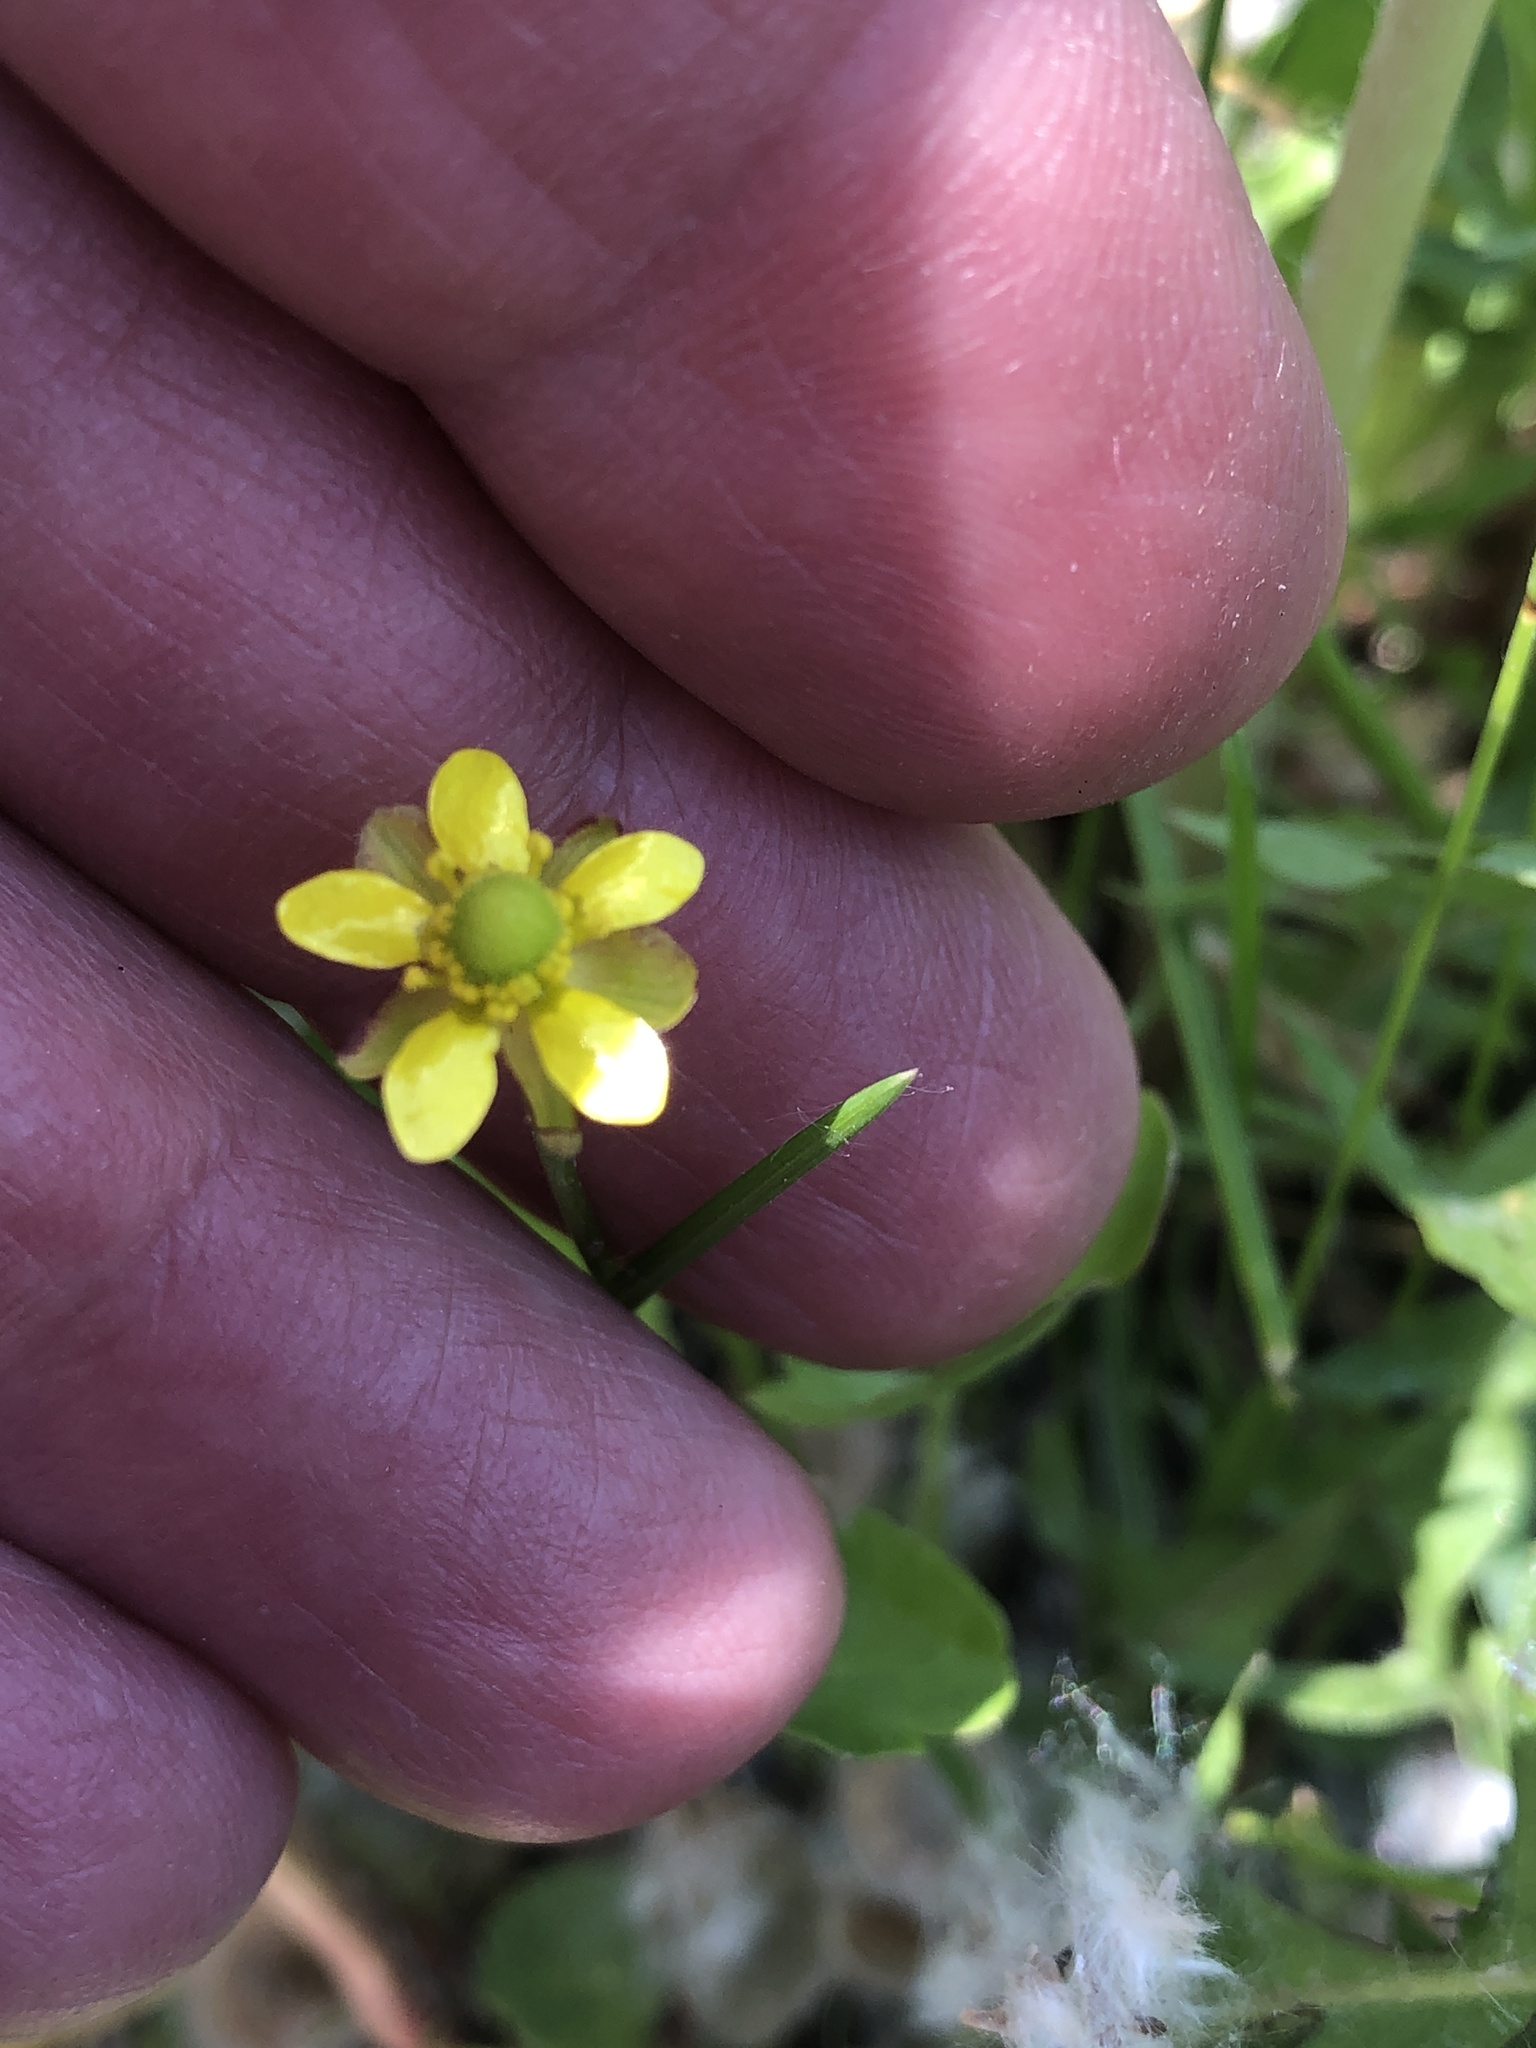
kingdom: Plantae
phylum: Tracheophyta
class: Magnoliopsida
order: Ranunculales
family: Ranunculaceae
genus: Halerpestes
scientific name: Halerpestes cymbalaria
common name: Seaside crowfoot
